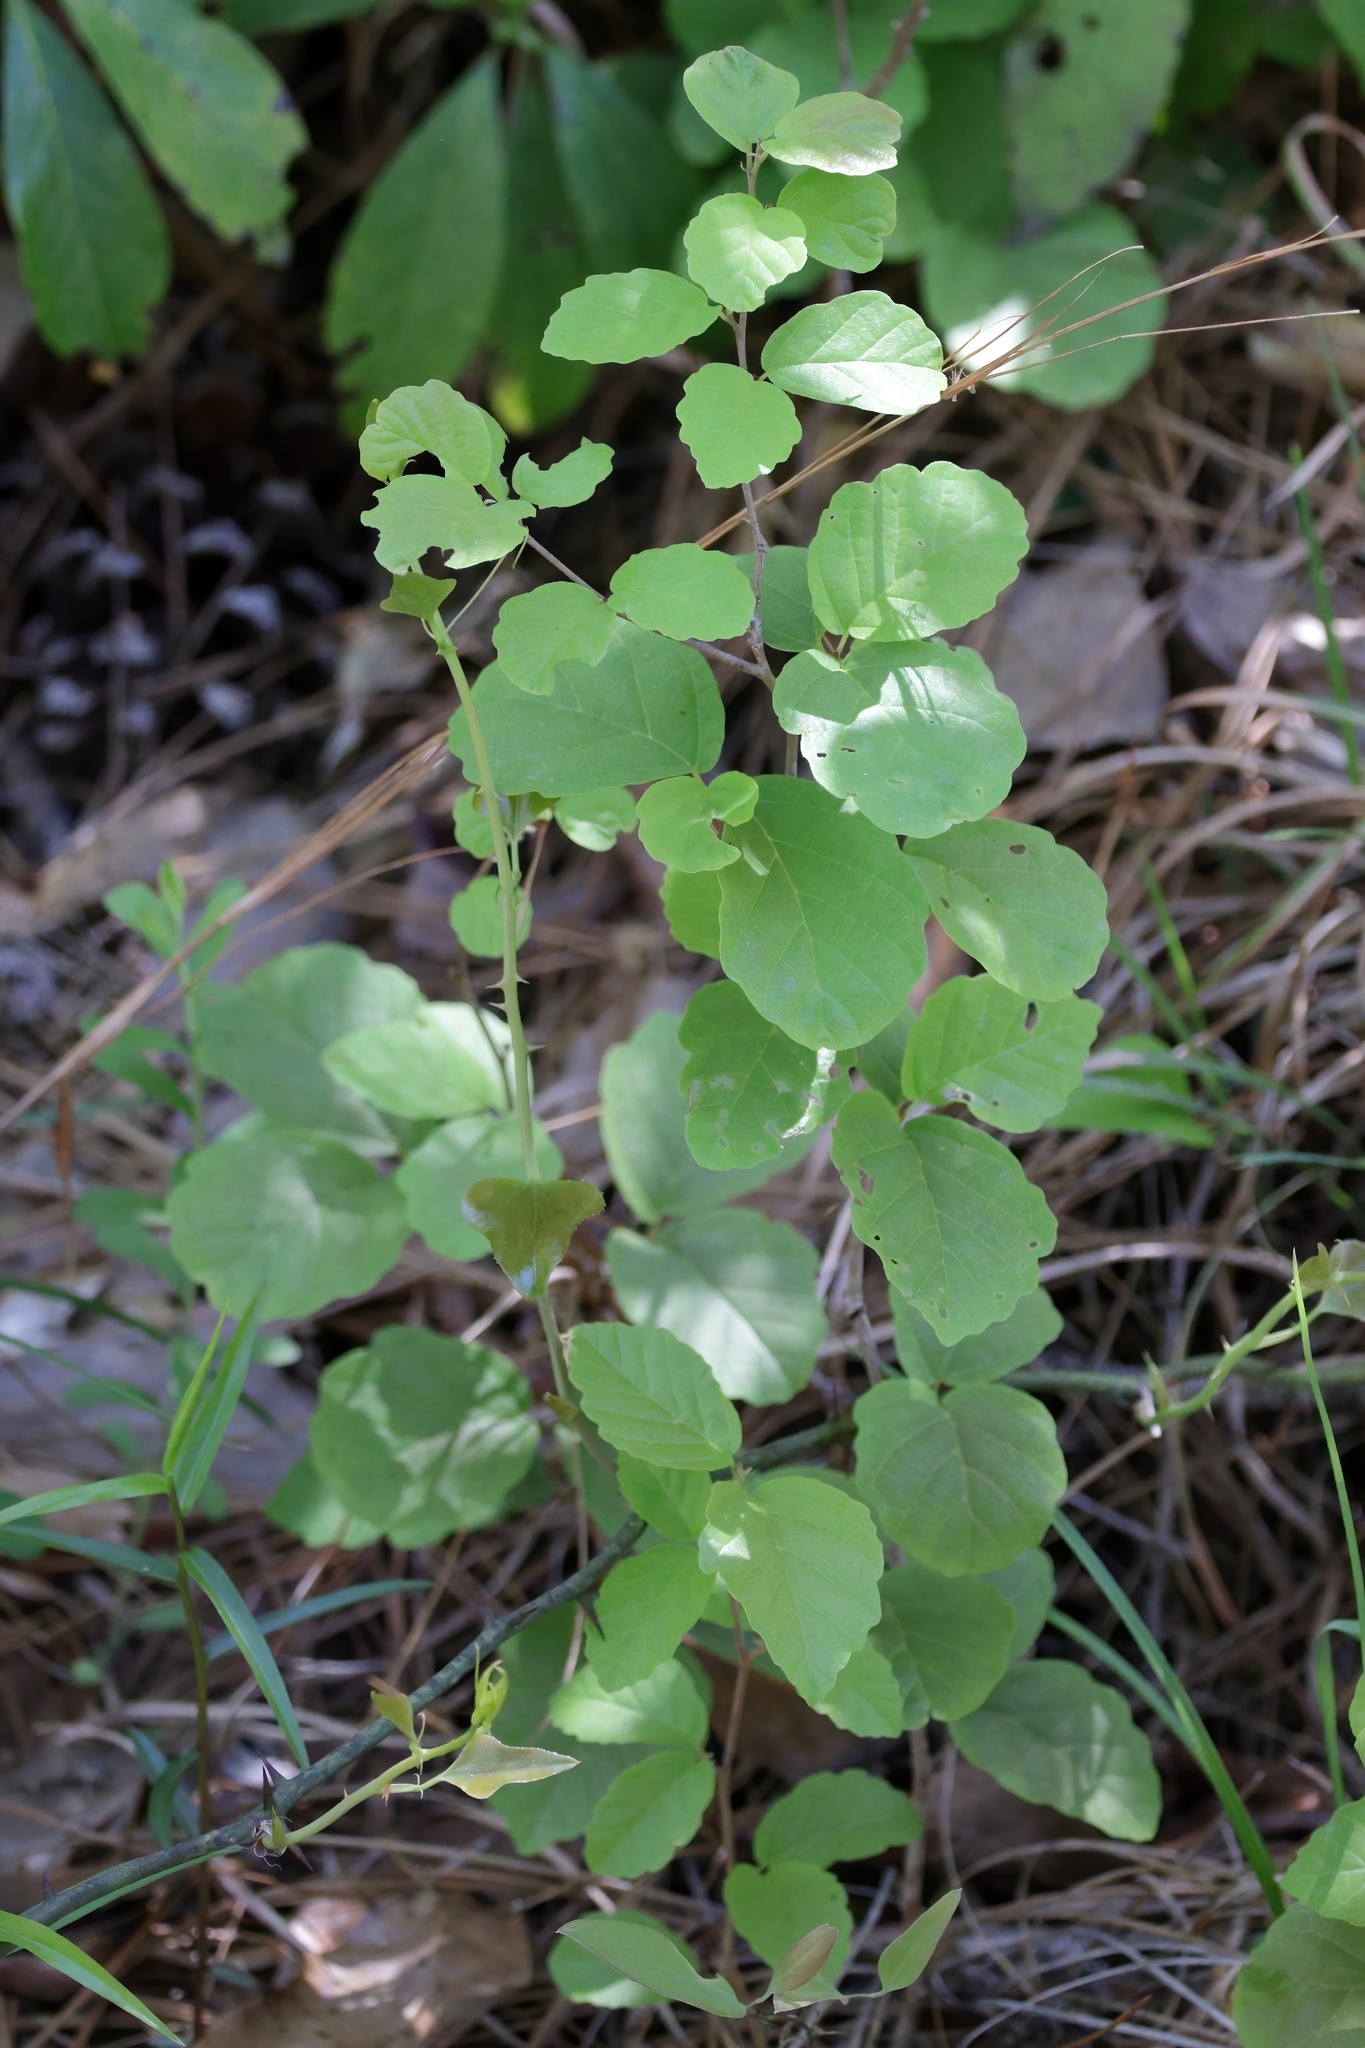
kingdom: Plantae
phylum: Tracheophyta
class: Magnoliopsida
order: Saxifragales
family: Hamamelidaceae
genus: Hamamelis
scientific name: Hamamelis virginiana
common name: Witch-hazel
